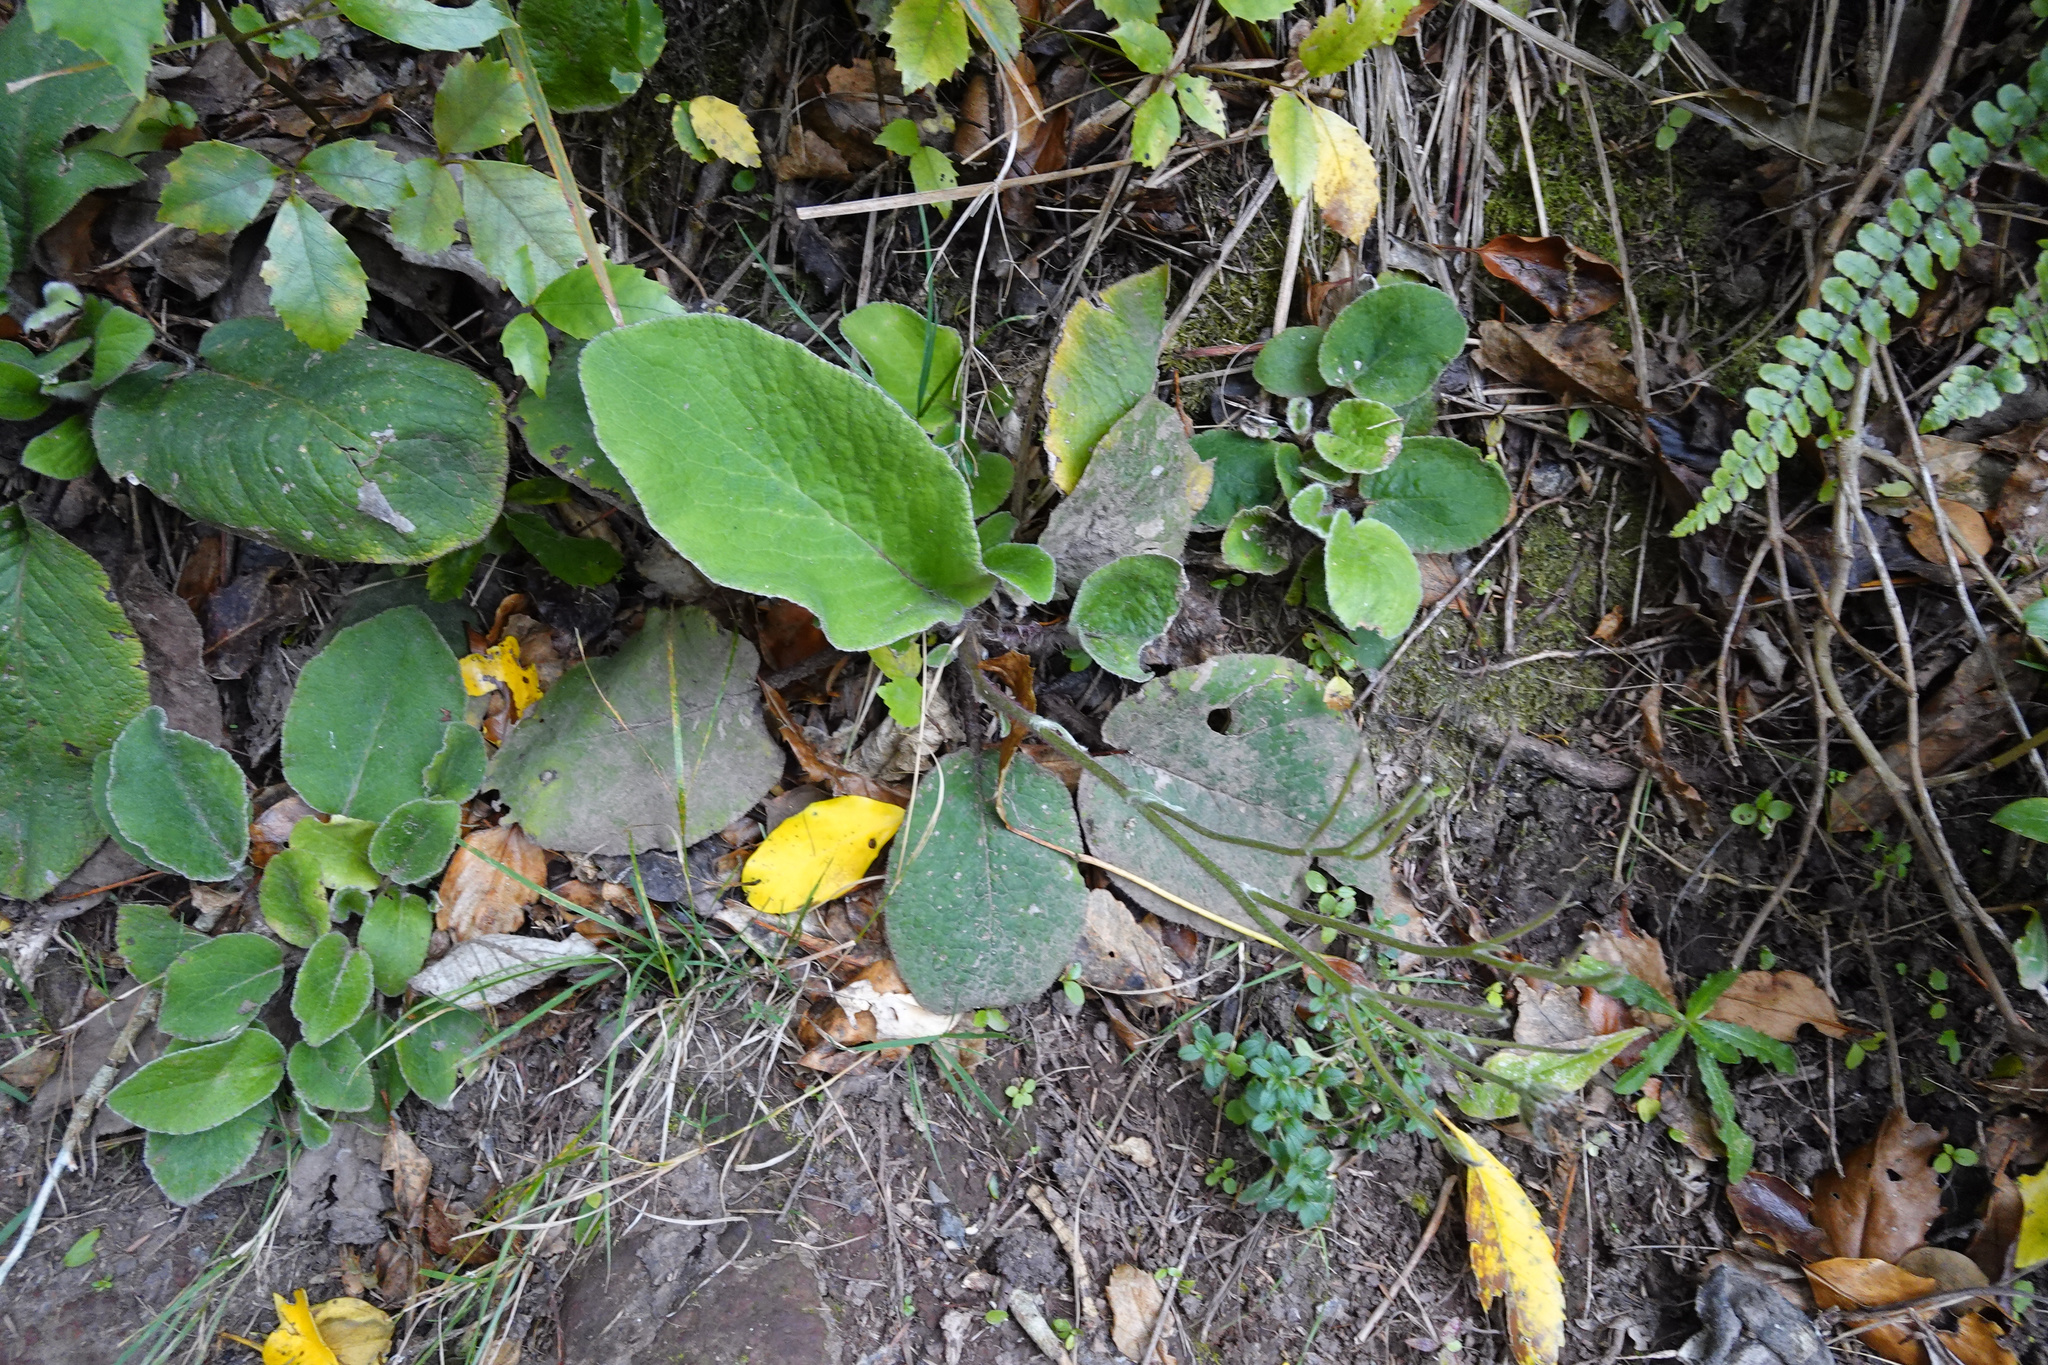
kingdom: Plantae
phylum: Tracheophyta
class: Magnoliopsida
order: Asterales
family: Asteraceae
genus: Brachyglottis
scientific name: Brachyglottis lagopus
